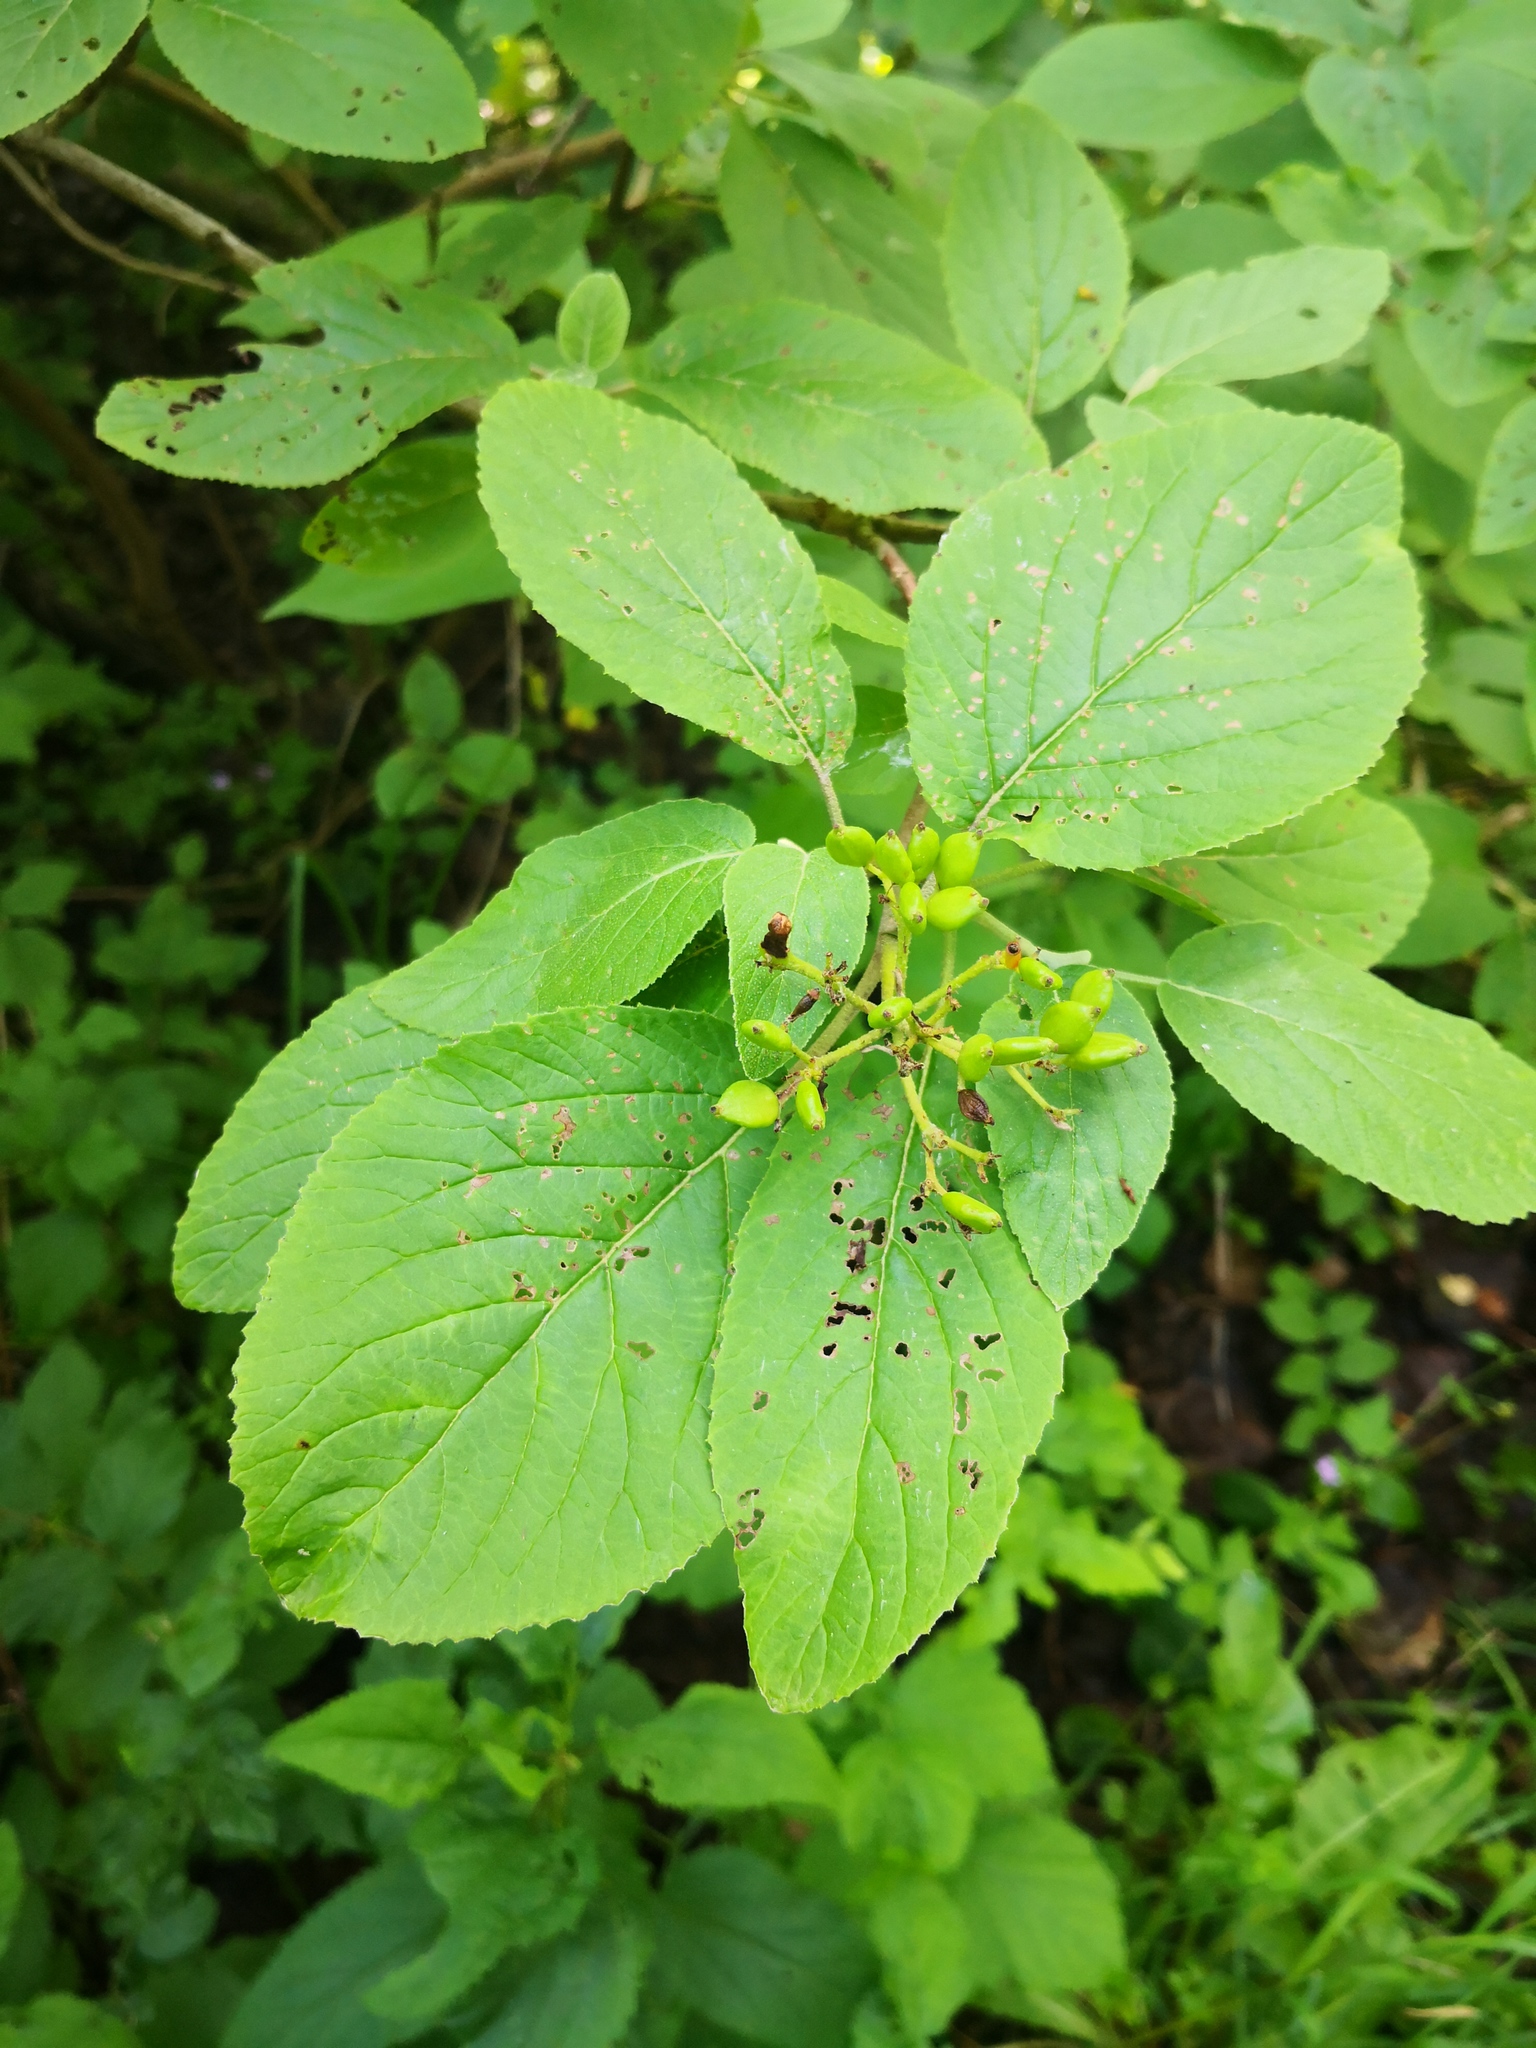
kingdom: Plantae
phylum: Tracheophyta
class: Magnoliopsida
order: Dipsacales
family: Viburnaceae
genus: Viburnum
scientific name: Viburnum lantana
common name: Wayfaring tree
